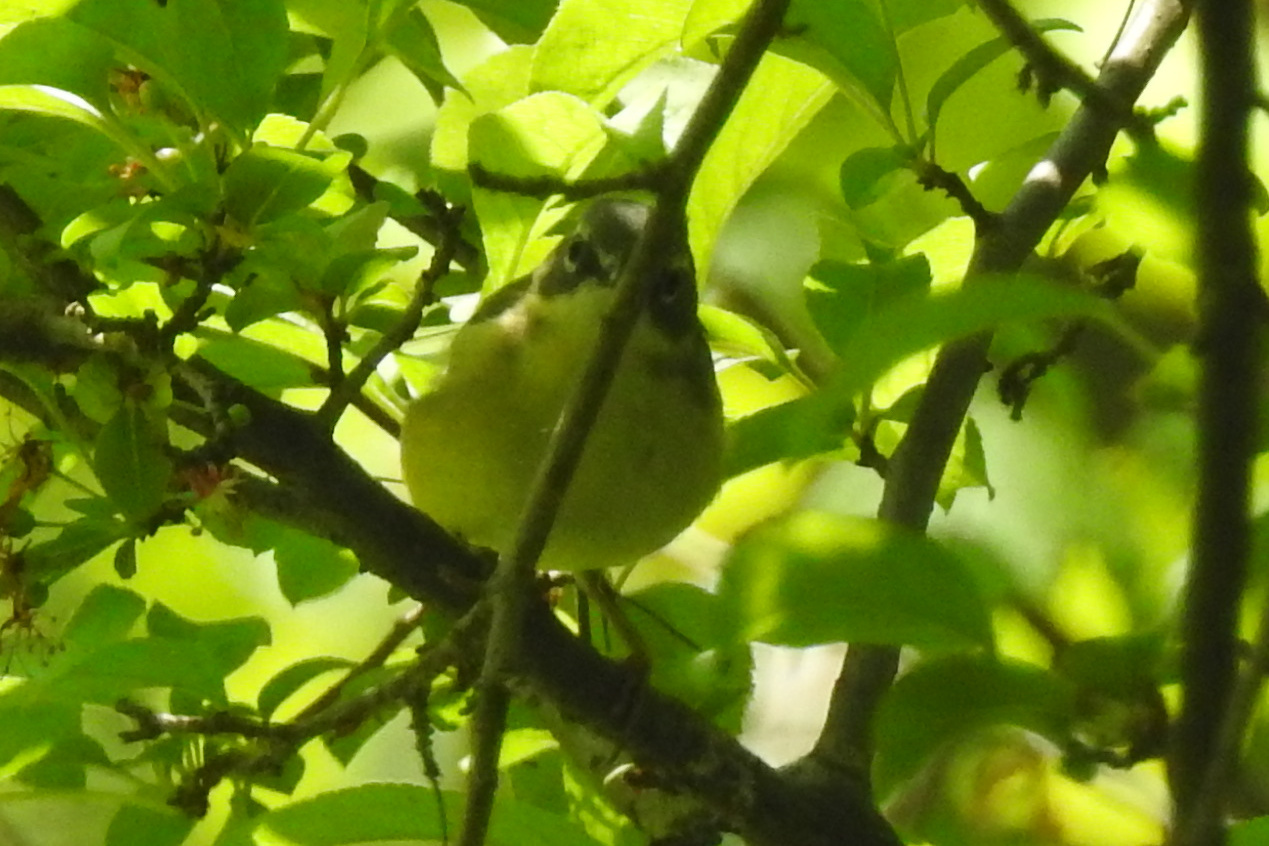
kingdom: Animalia
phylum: Chordata
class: Aves
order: Passeriformes
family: Parulidae
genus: Setophaga
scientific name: Setophaga caerulescens
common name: Black-throated blue warbler
